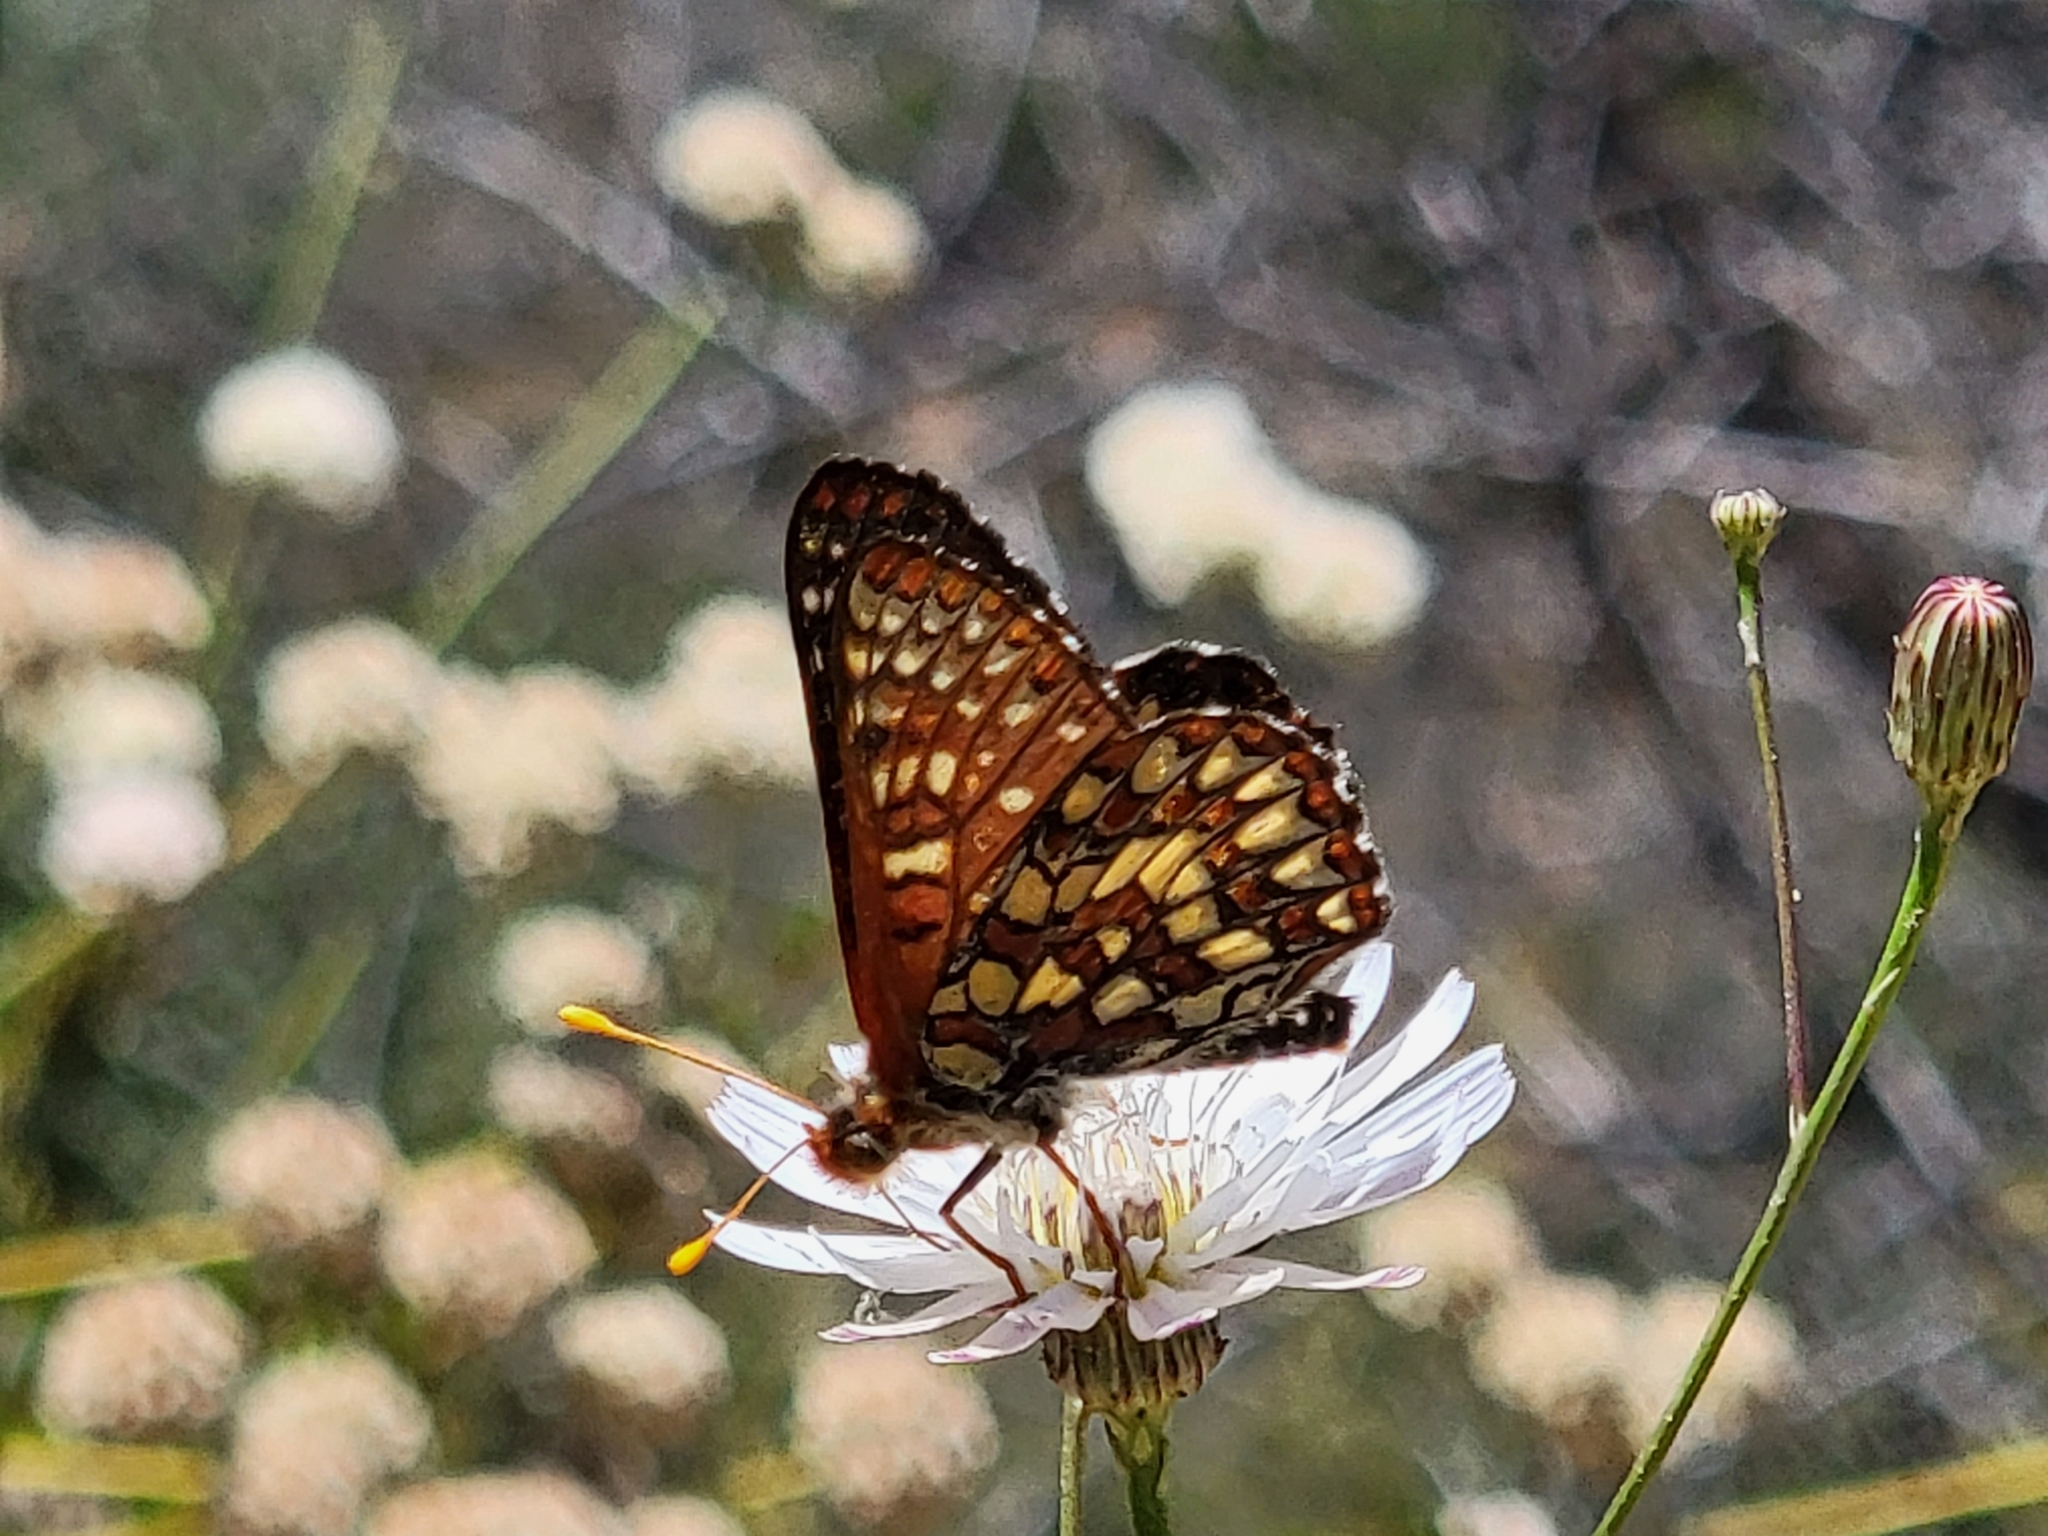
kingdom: Animalia
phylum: Arthropoda
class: Insecta
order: Lepidoptera
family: Nymphalidae
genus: Occidryas
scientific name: Occidryas chalcedona
